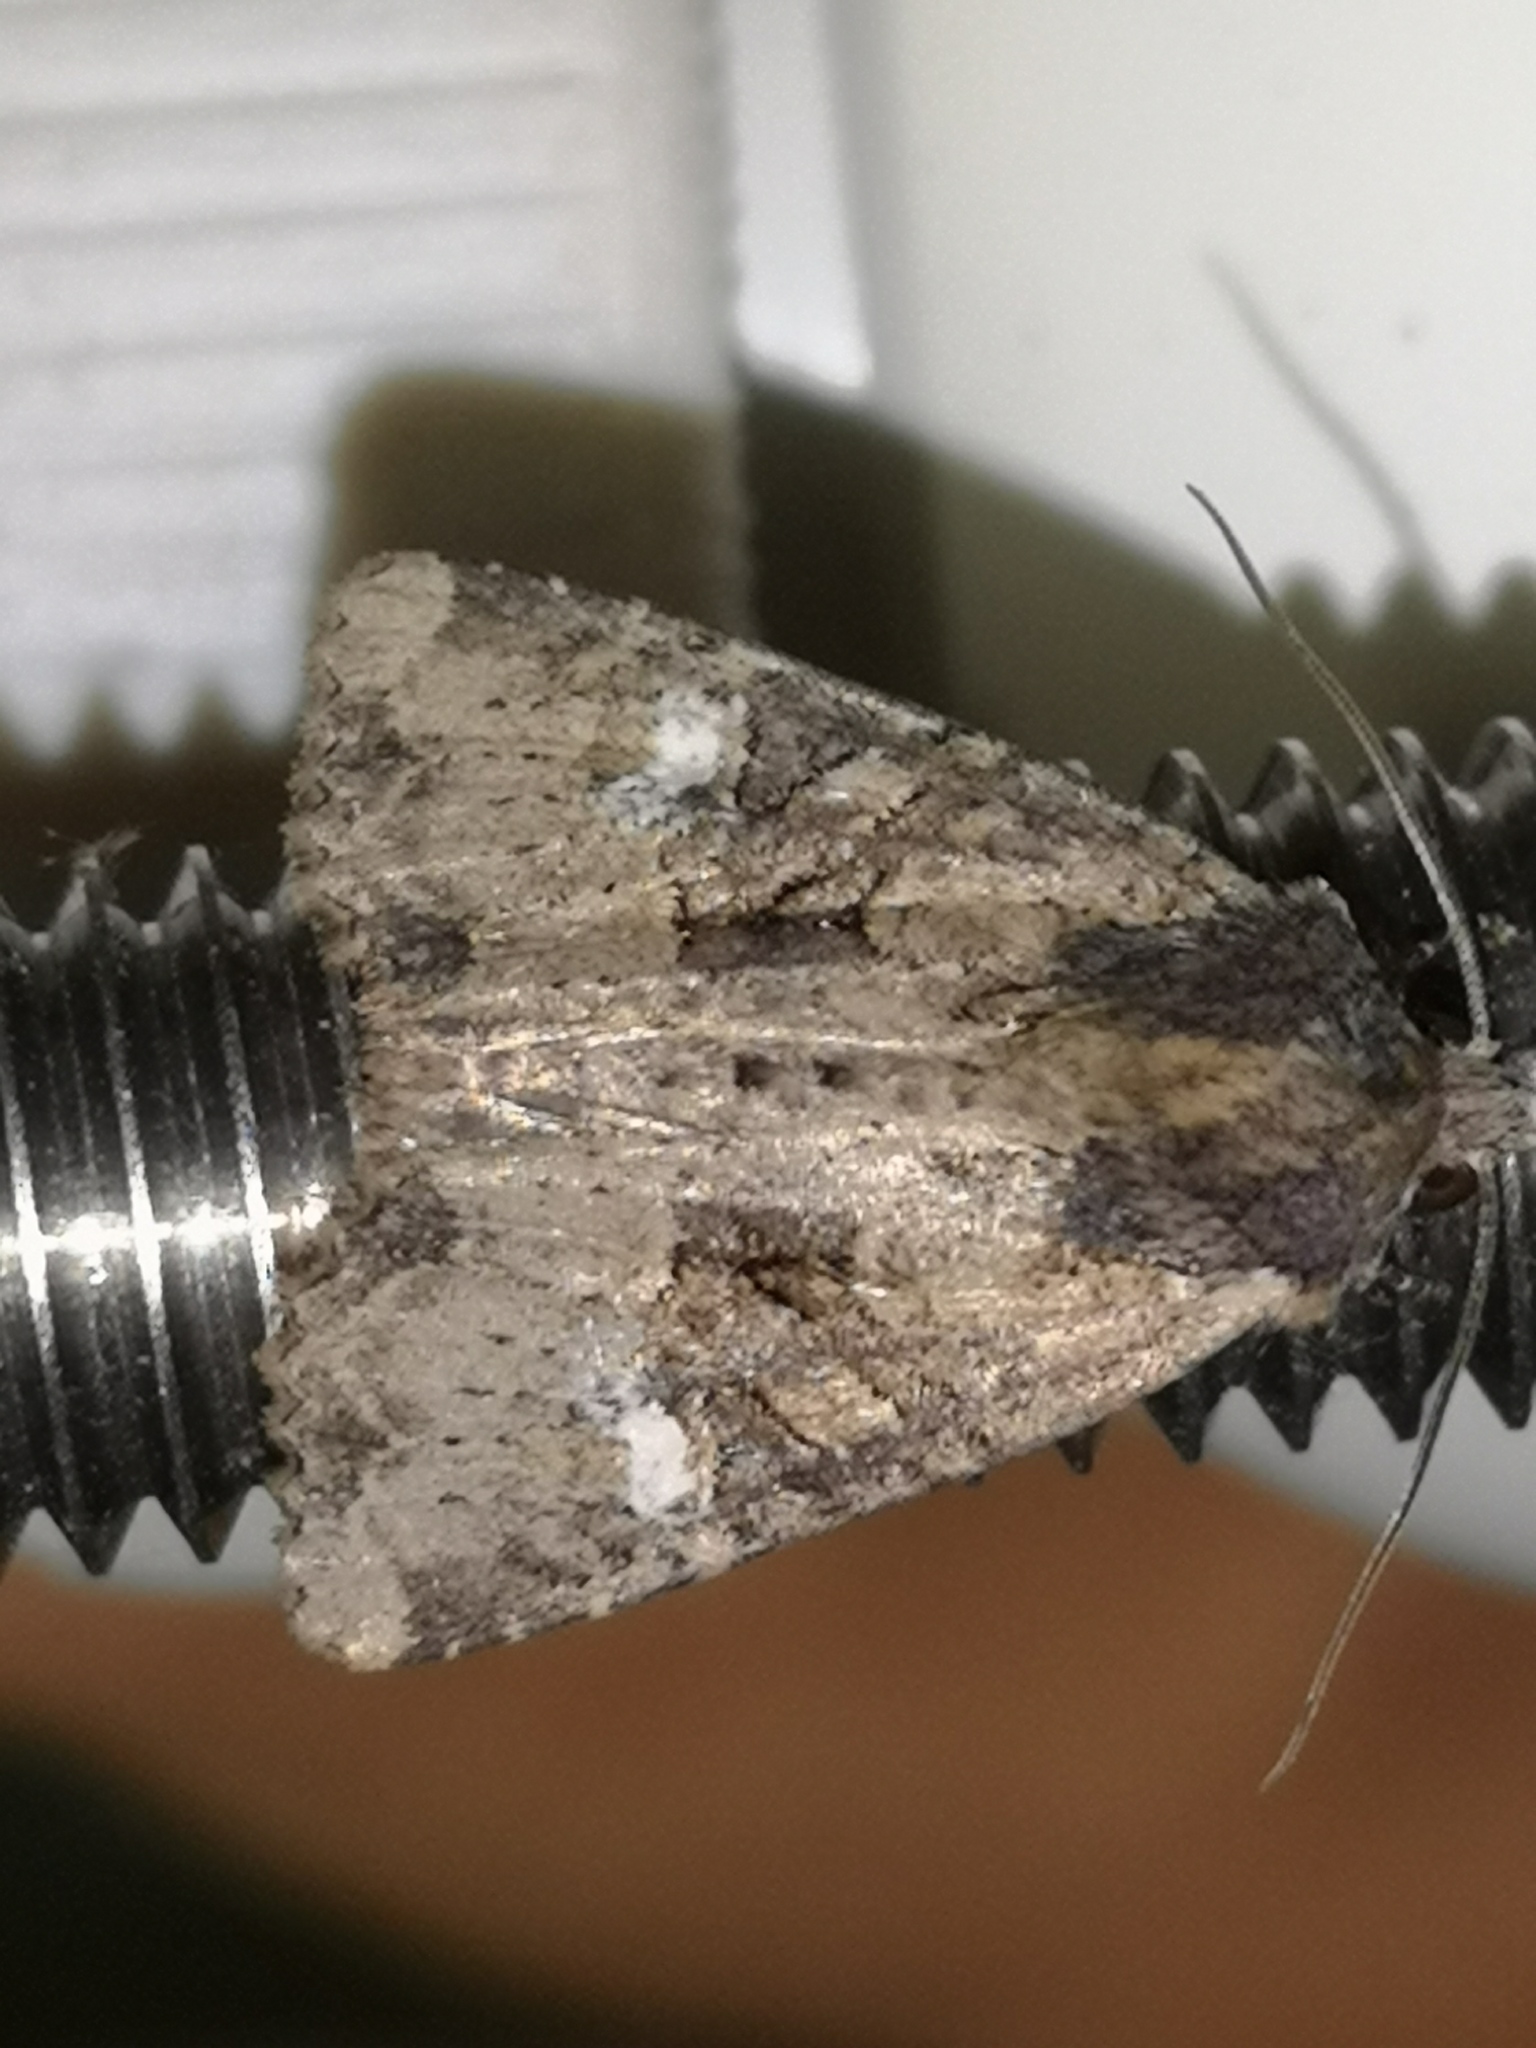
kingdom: Animalia
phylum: Arthropoda
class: Insecta
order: Lepidoptera
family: Noctuidae
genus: Mesapamea
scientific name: Mesapamea
